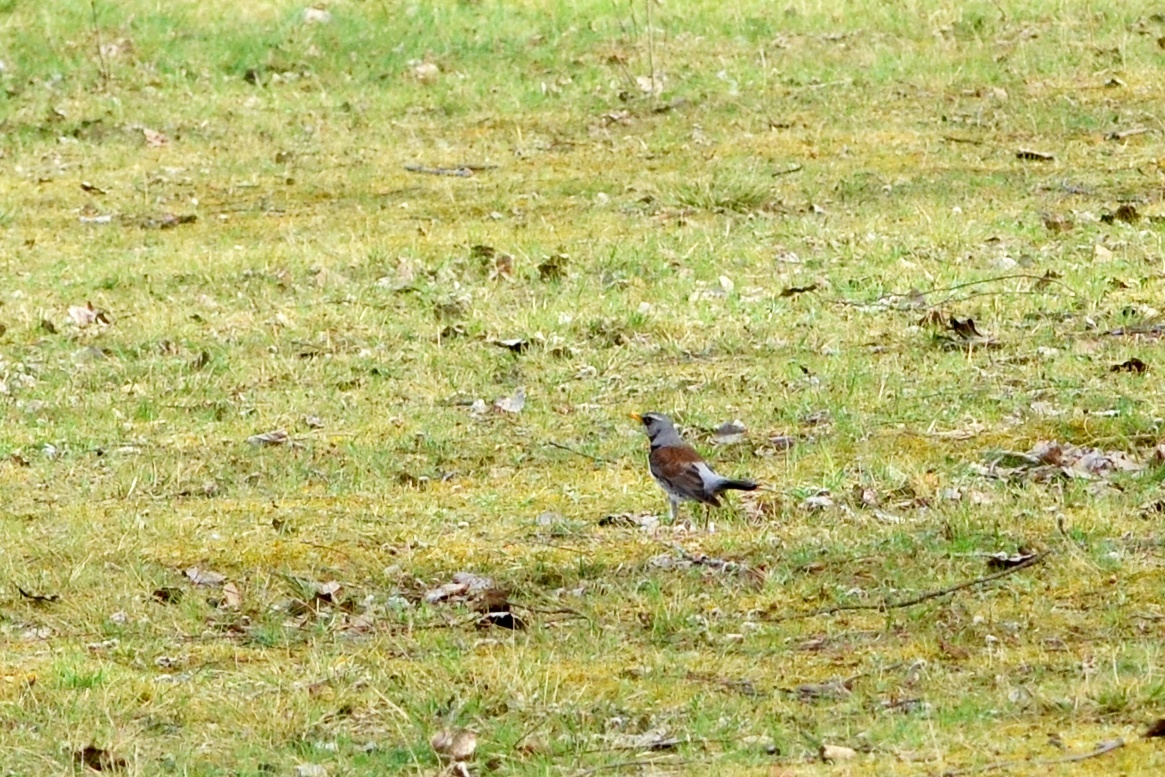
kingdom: Animalia
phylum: Chordata
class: Aves
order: Passeriformes
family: Turdidae
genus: Turdus
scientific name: Turdus pilaris
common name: Fieldfare
